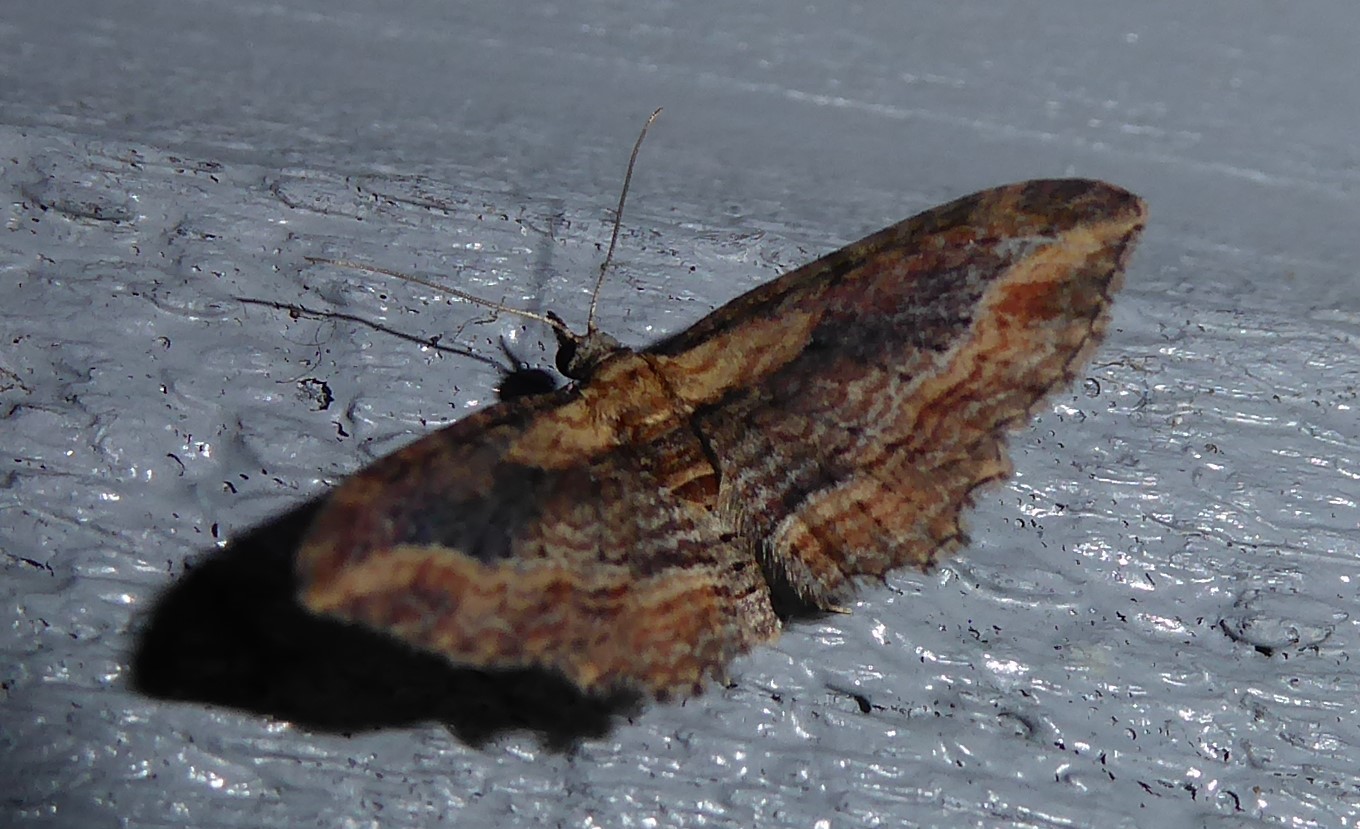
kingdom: Animalia
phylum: Arthropoda
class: Insecta
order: Lepidoptera
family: Geometridae
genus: Chloroclystis
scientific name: Chloroclystis filata
